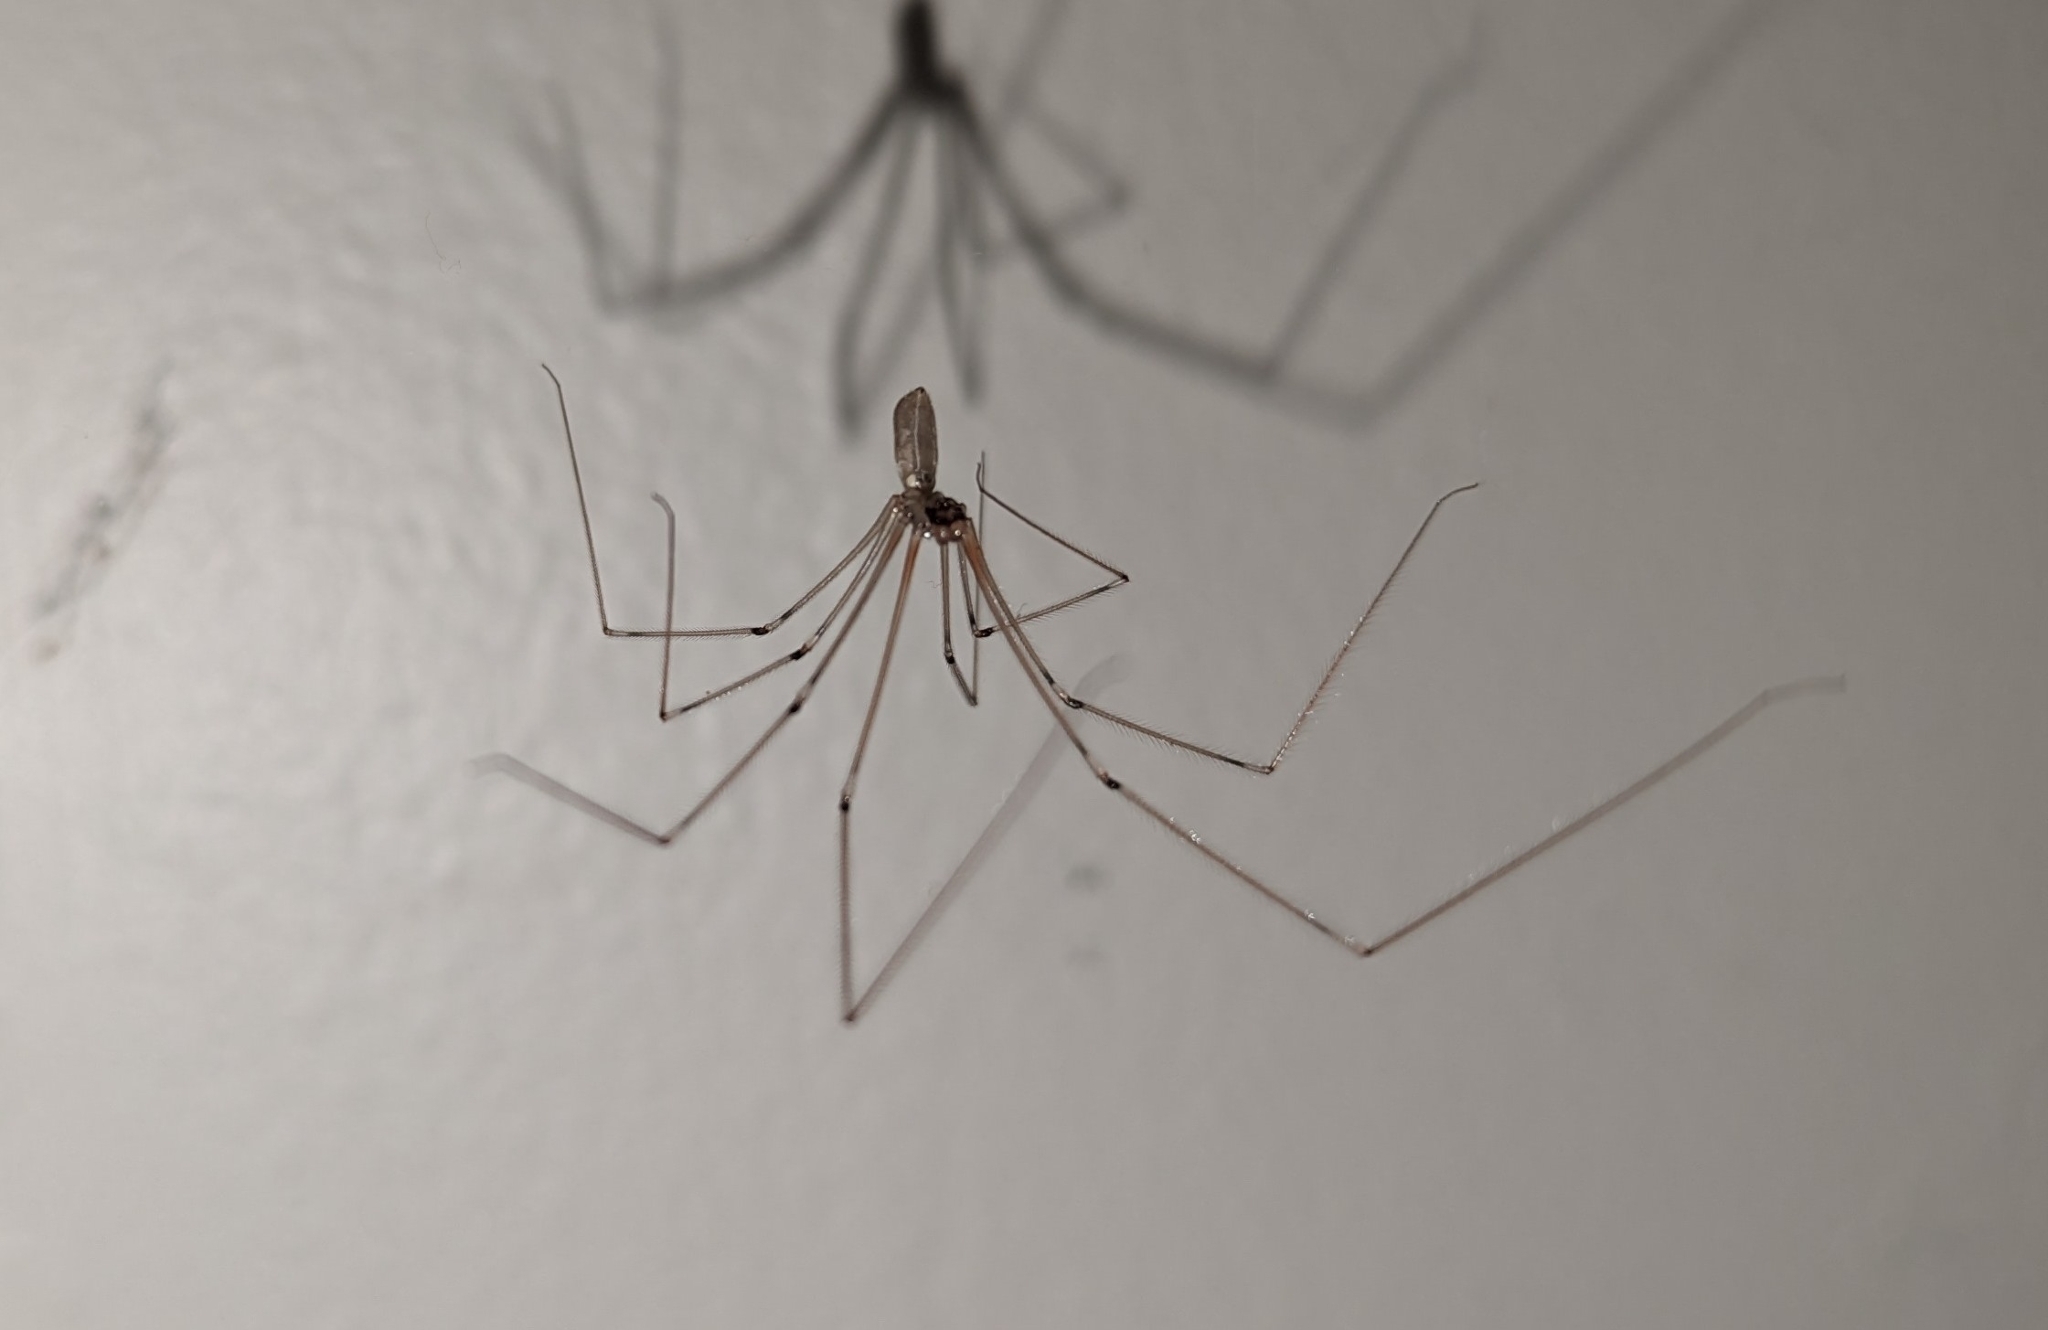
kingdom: Animalia
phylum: Arthropoda
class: Arachnida
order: Araneae
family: Pholcidae
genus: Pholcus
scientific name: Pholcus phalangioides
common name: Longbodied cellar spider
